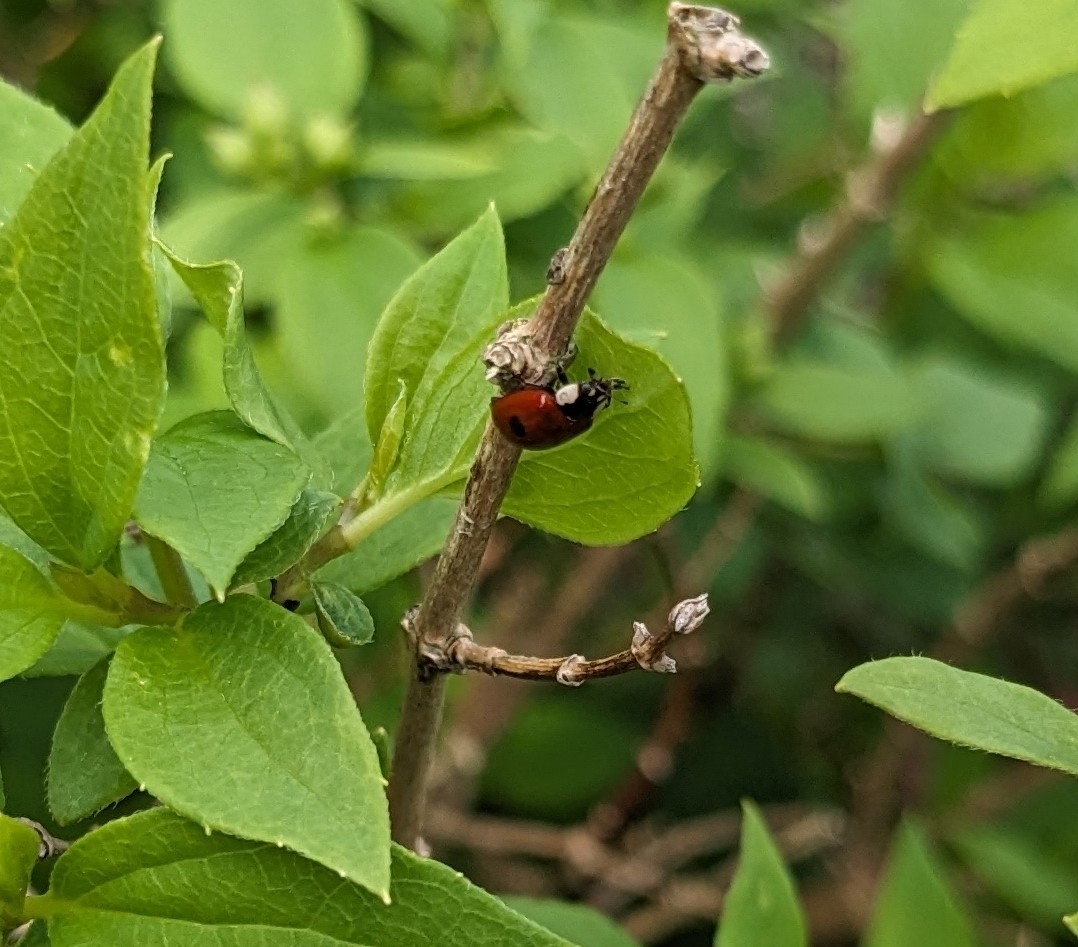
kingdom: Animalia
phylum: Arthropoda
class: Insecta
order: Coleoptera
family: Coccinellidae
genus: Adalia
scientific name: Adalia bipunctata
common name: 2-spot ladybird
